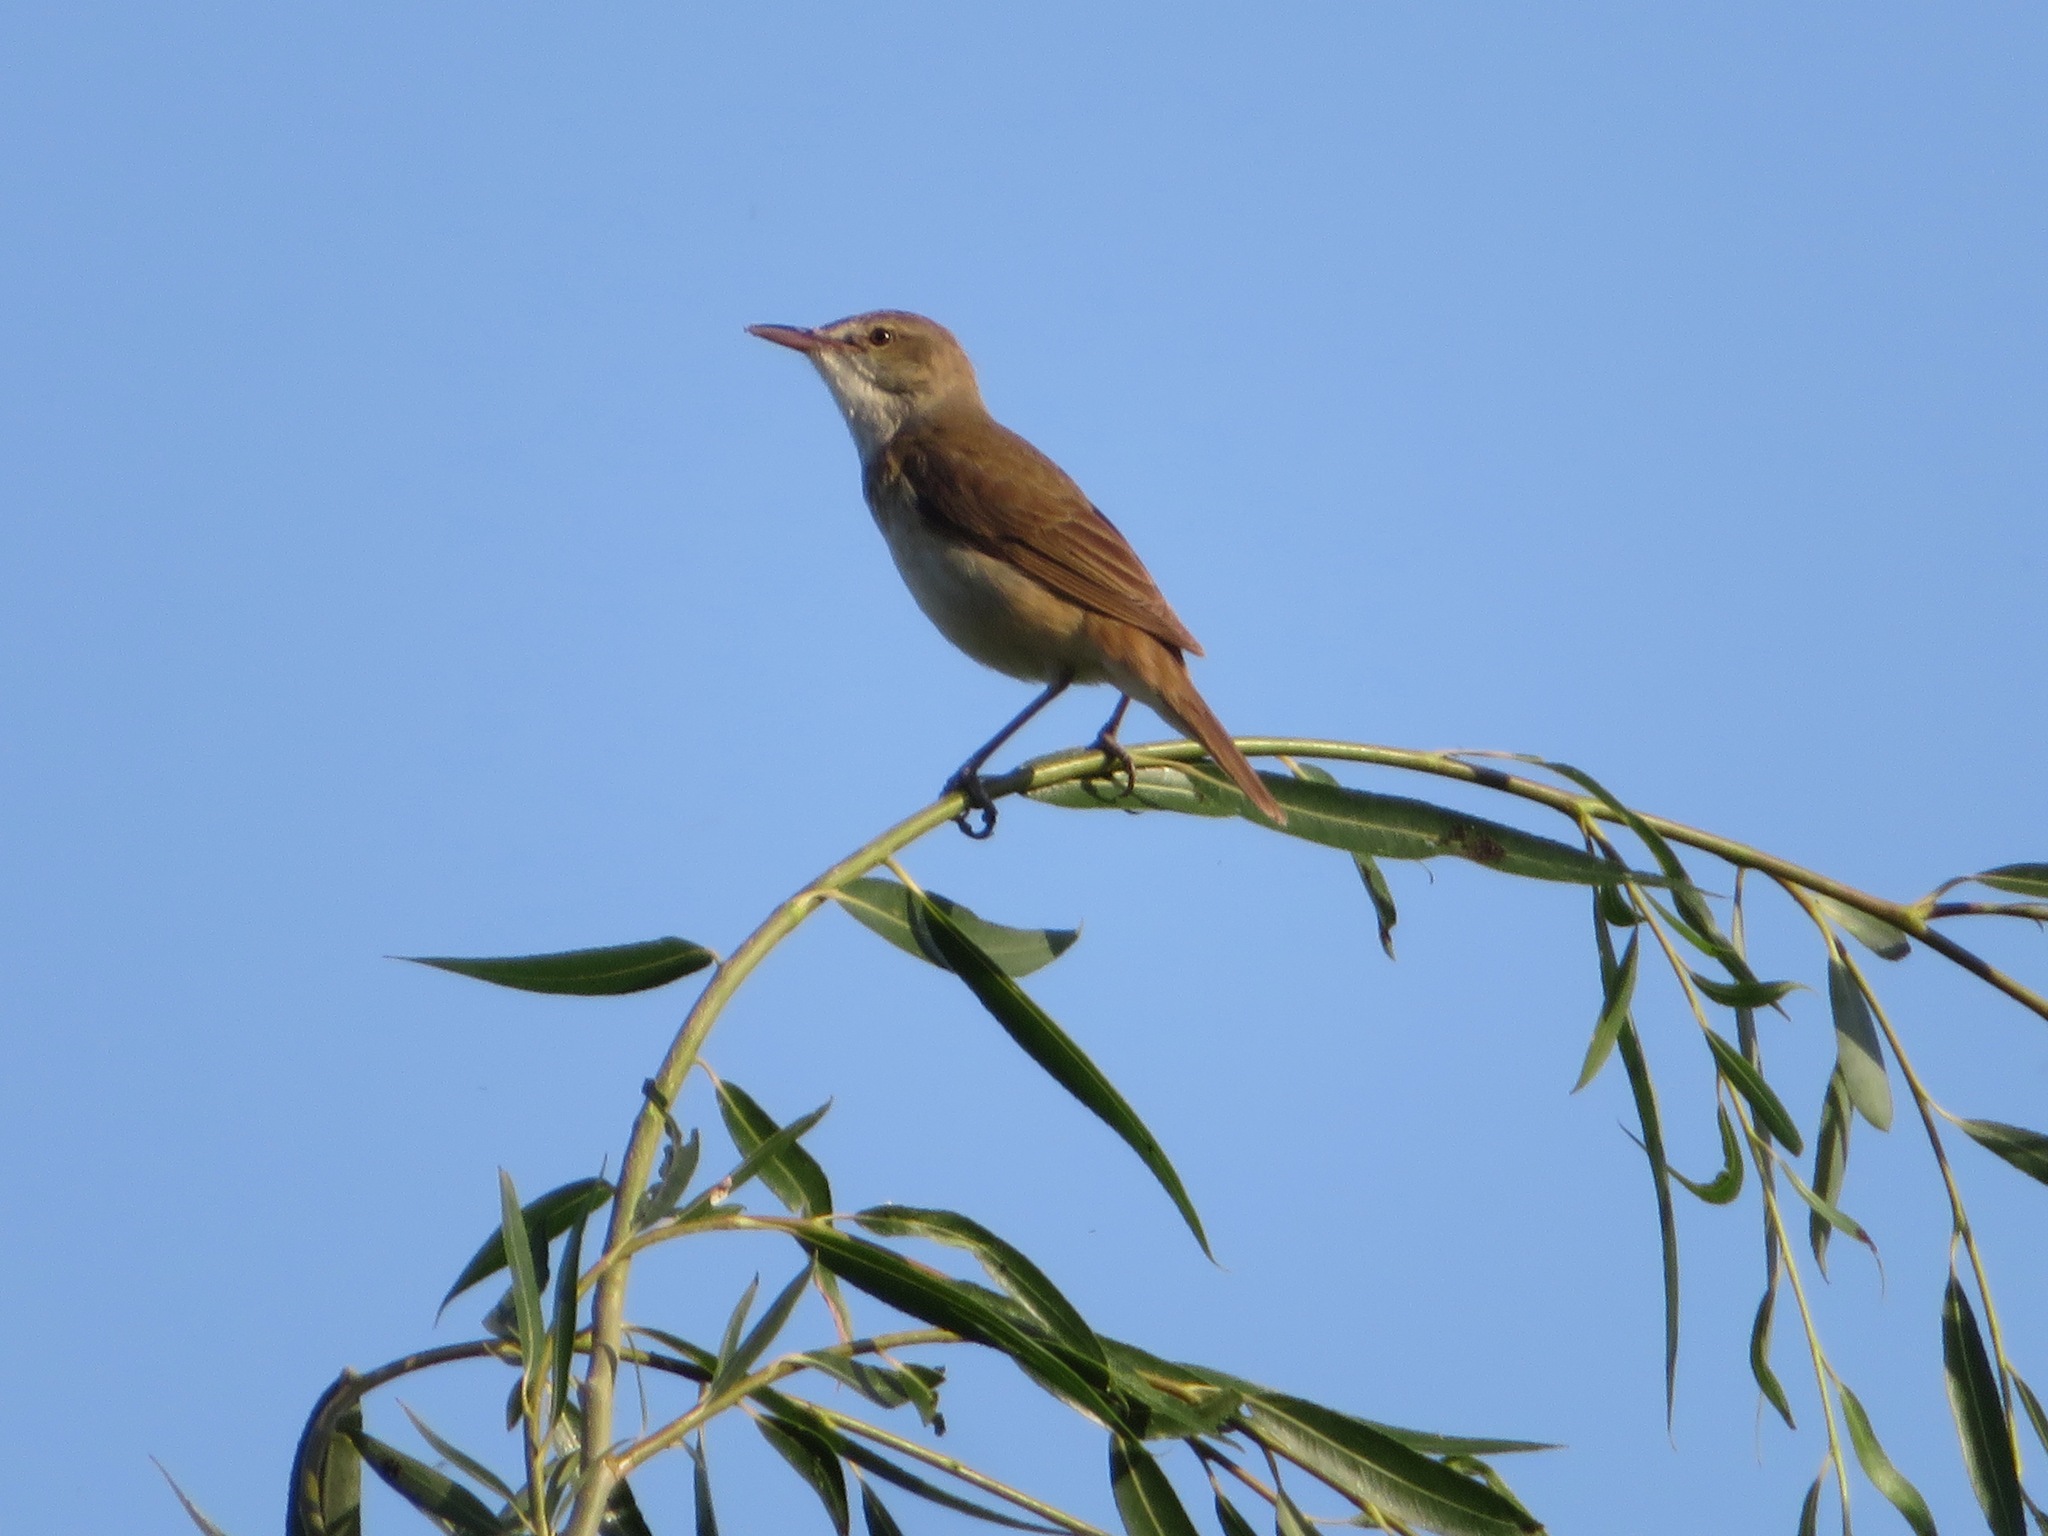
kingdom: Animalia
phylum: Chordata
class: Aves
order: Passeriformes
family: Acrocephalidae
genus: Acrocephalus
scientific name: Acrocephalus orientalis
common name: Oriental reed warbler
